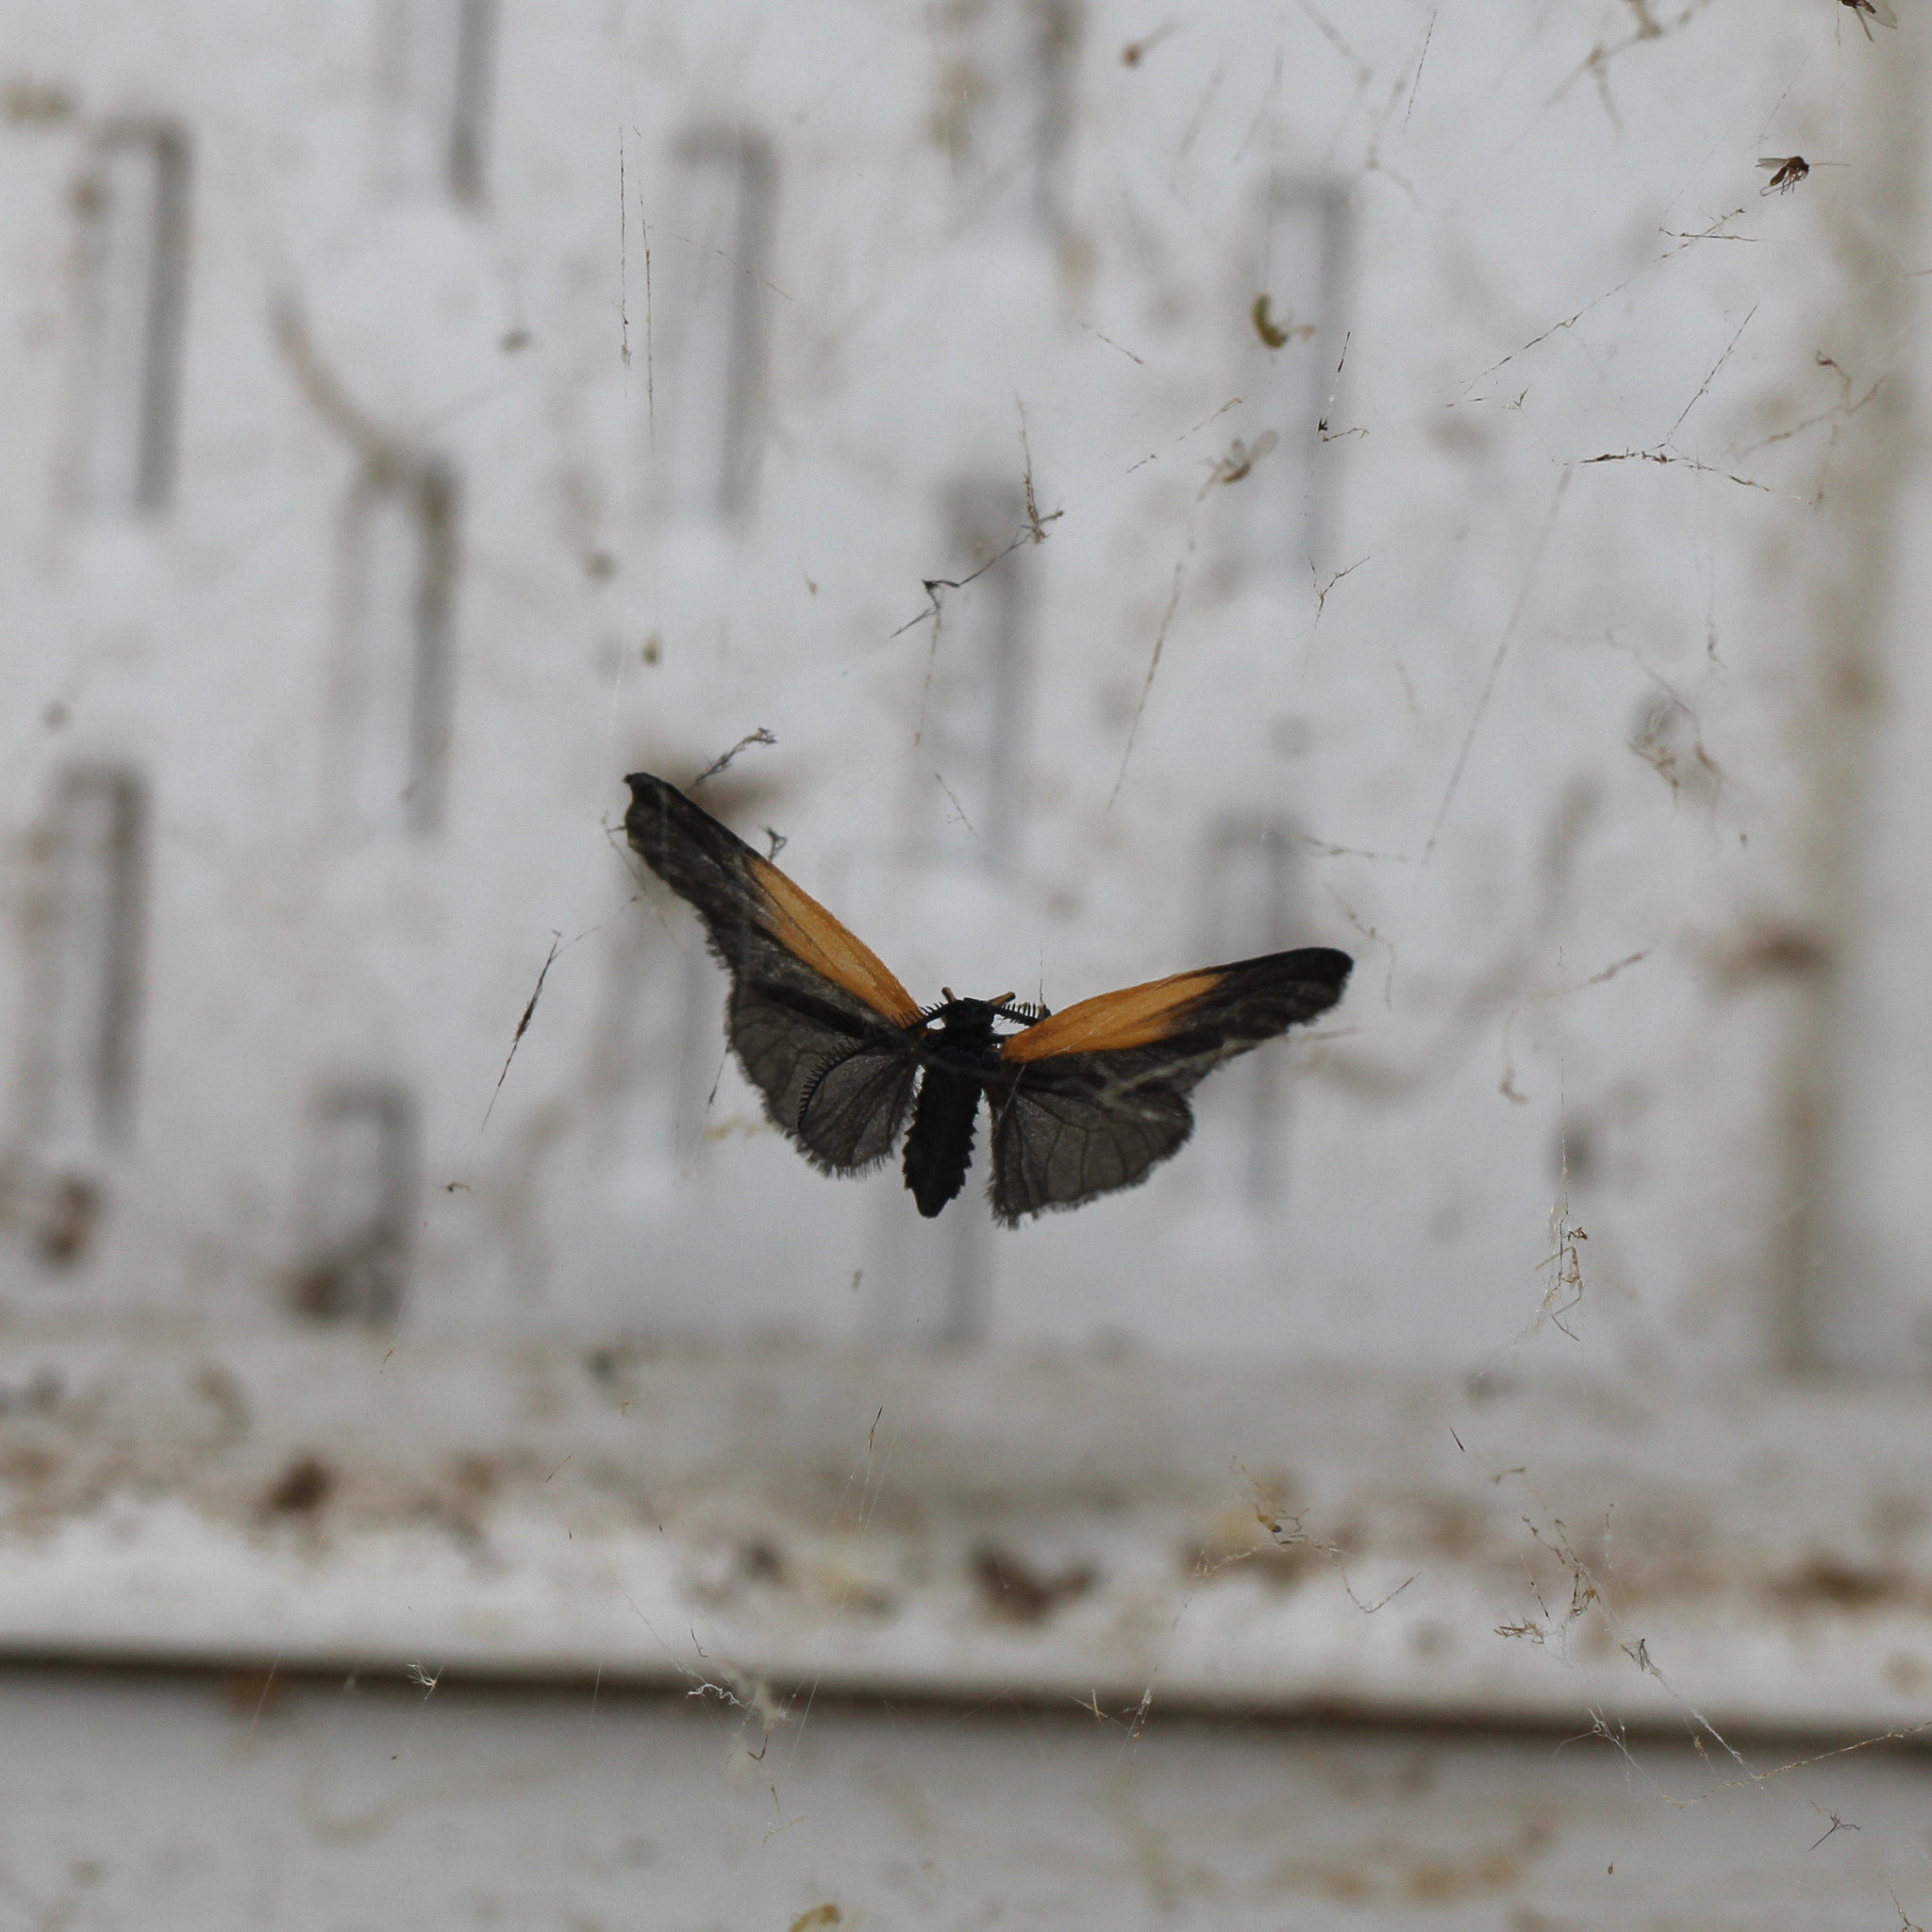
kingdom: Animalia
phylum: Arthropoda
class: Insecta
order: Lepidoptera
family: Zygaenidae
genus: Malthaca
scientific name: Malthaca dimidiata
